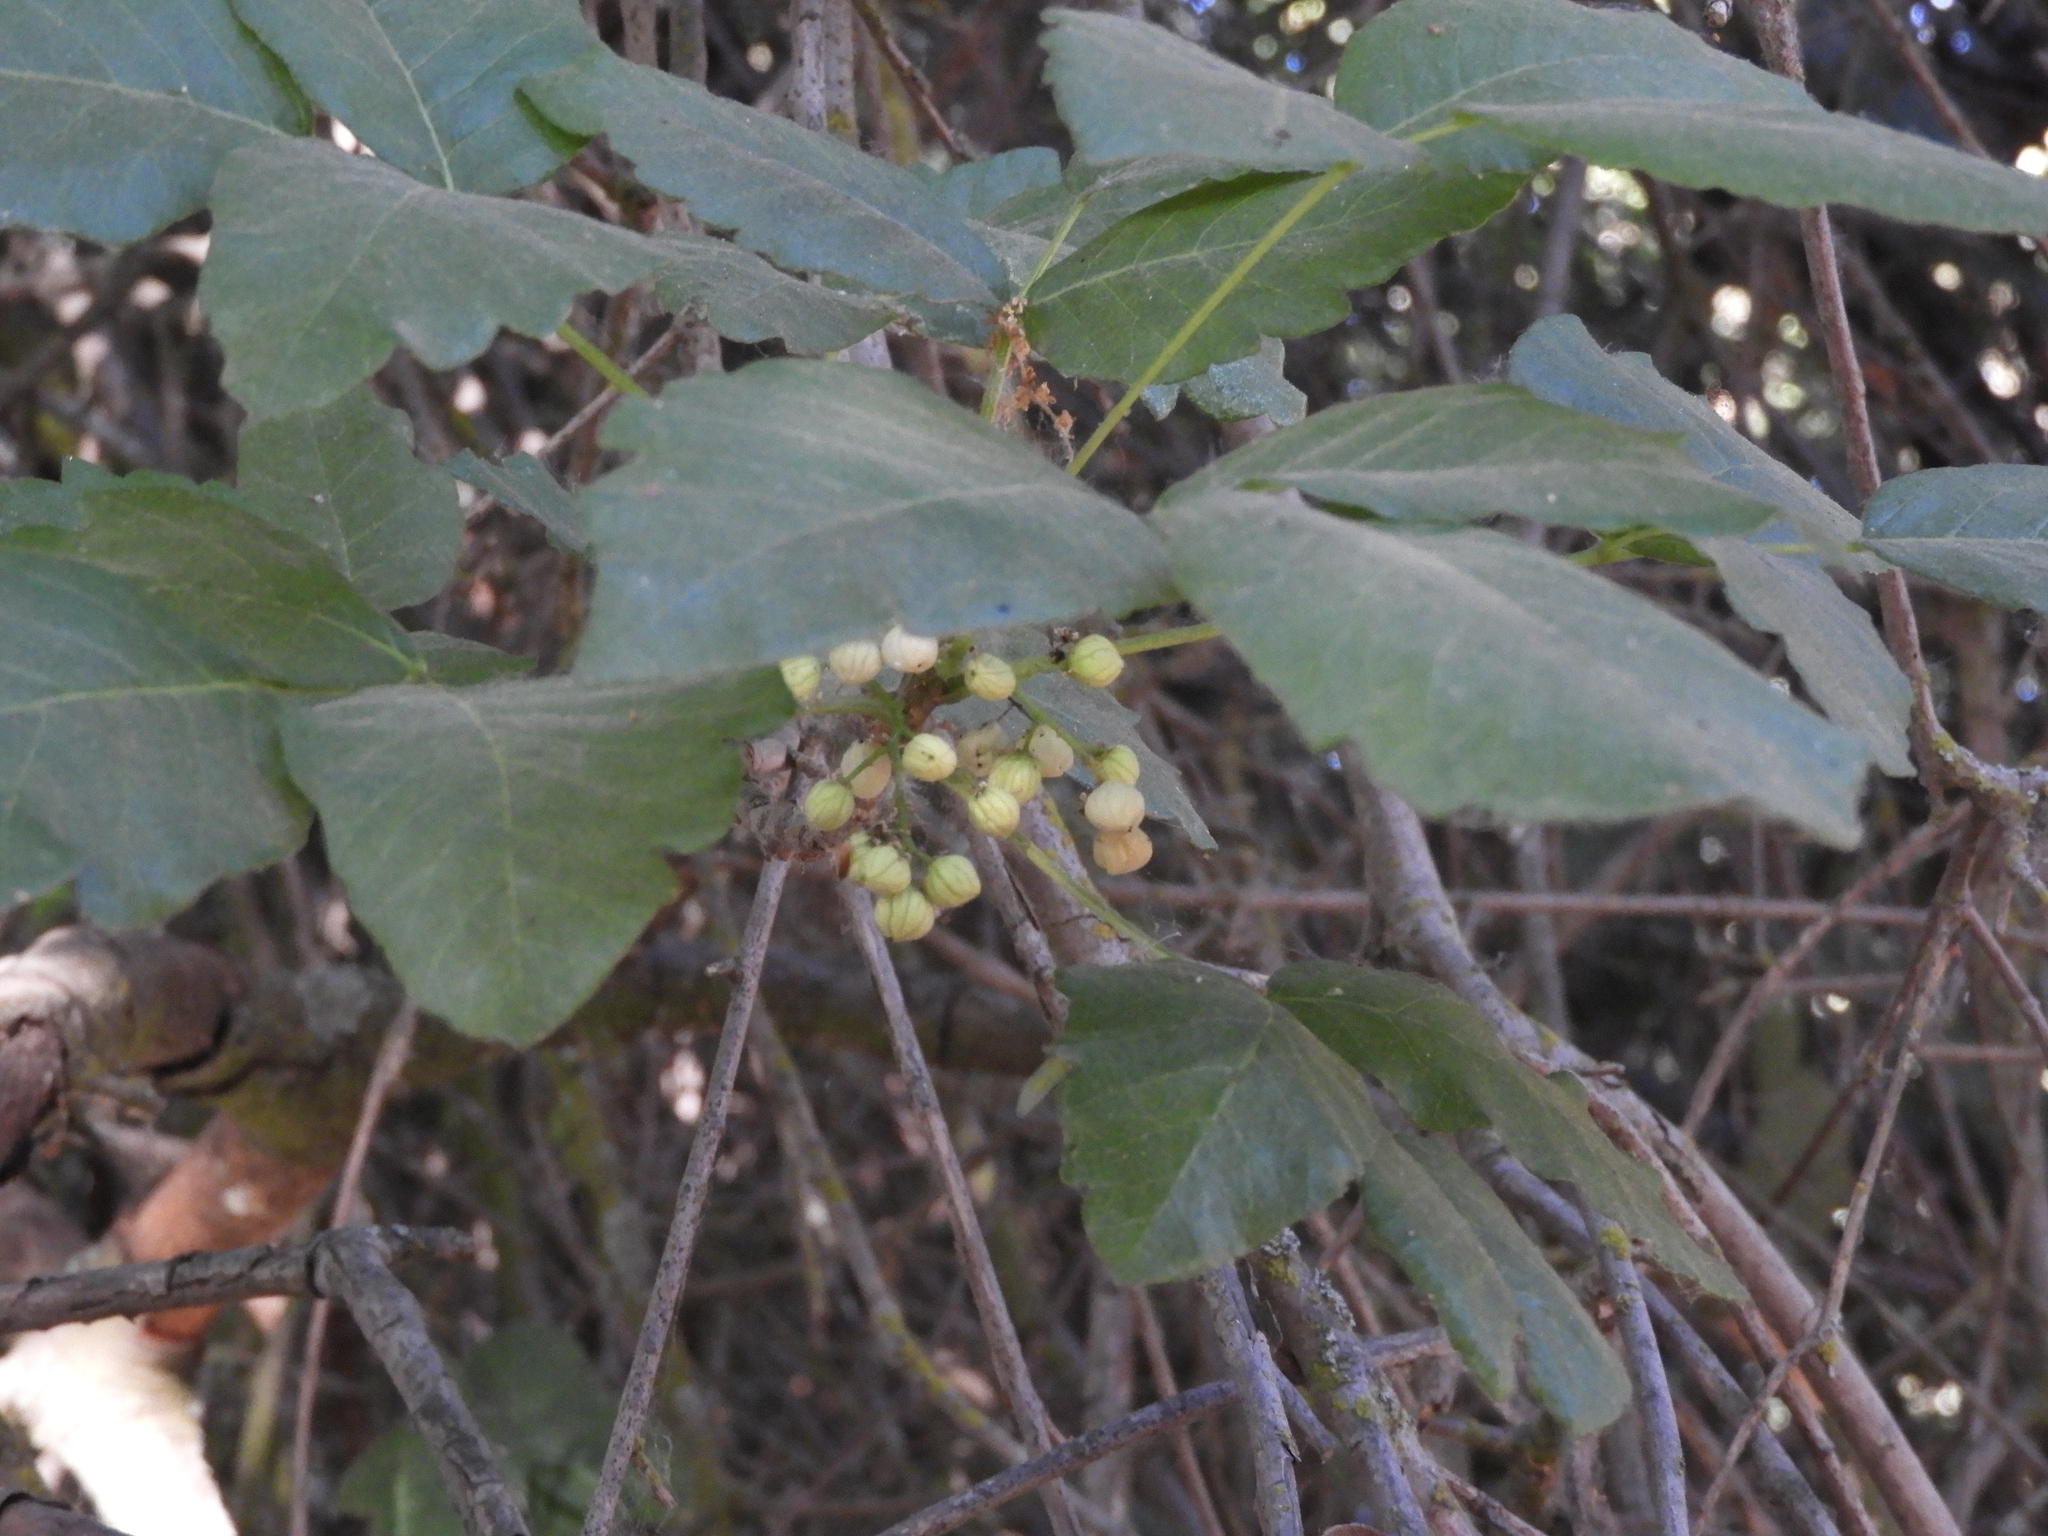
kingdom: Plantae
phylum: Tracheophyta
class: Magnoliopsida
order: Sapindales
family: Anacardiaceae
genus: Toxicodendron
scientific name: Toxicodendron diversilobum
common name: Pacific poison-oak
